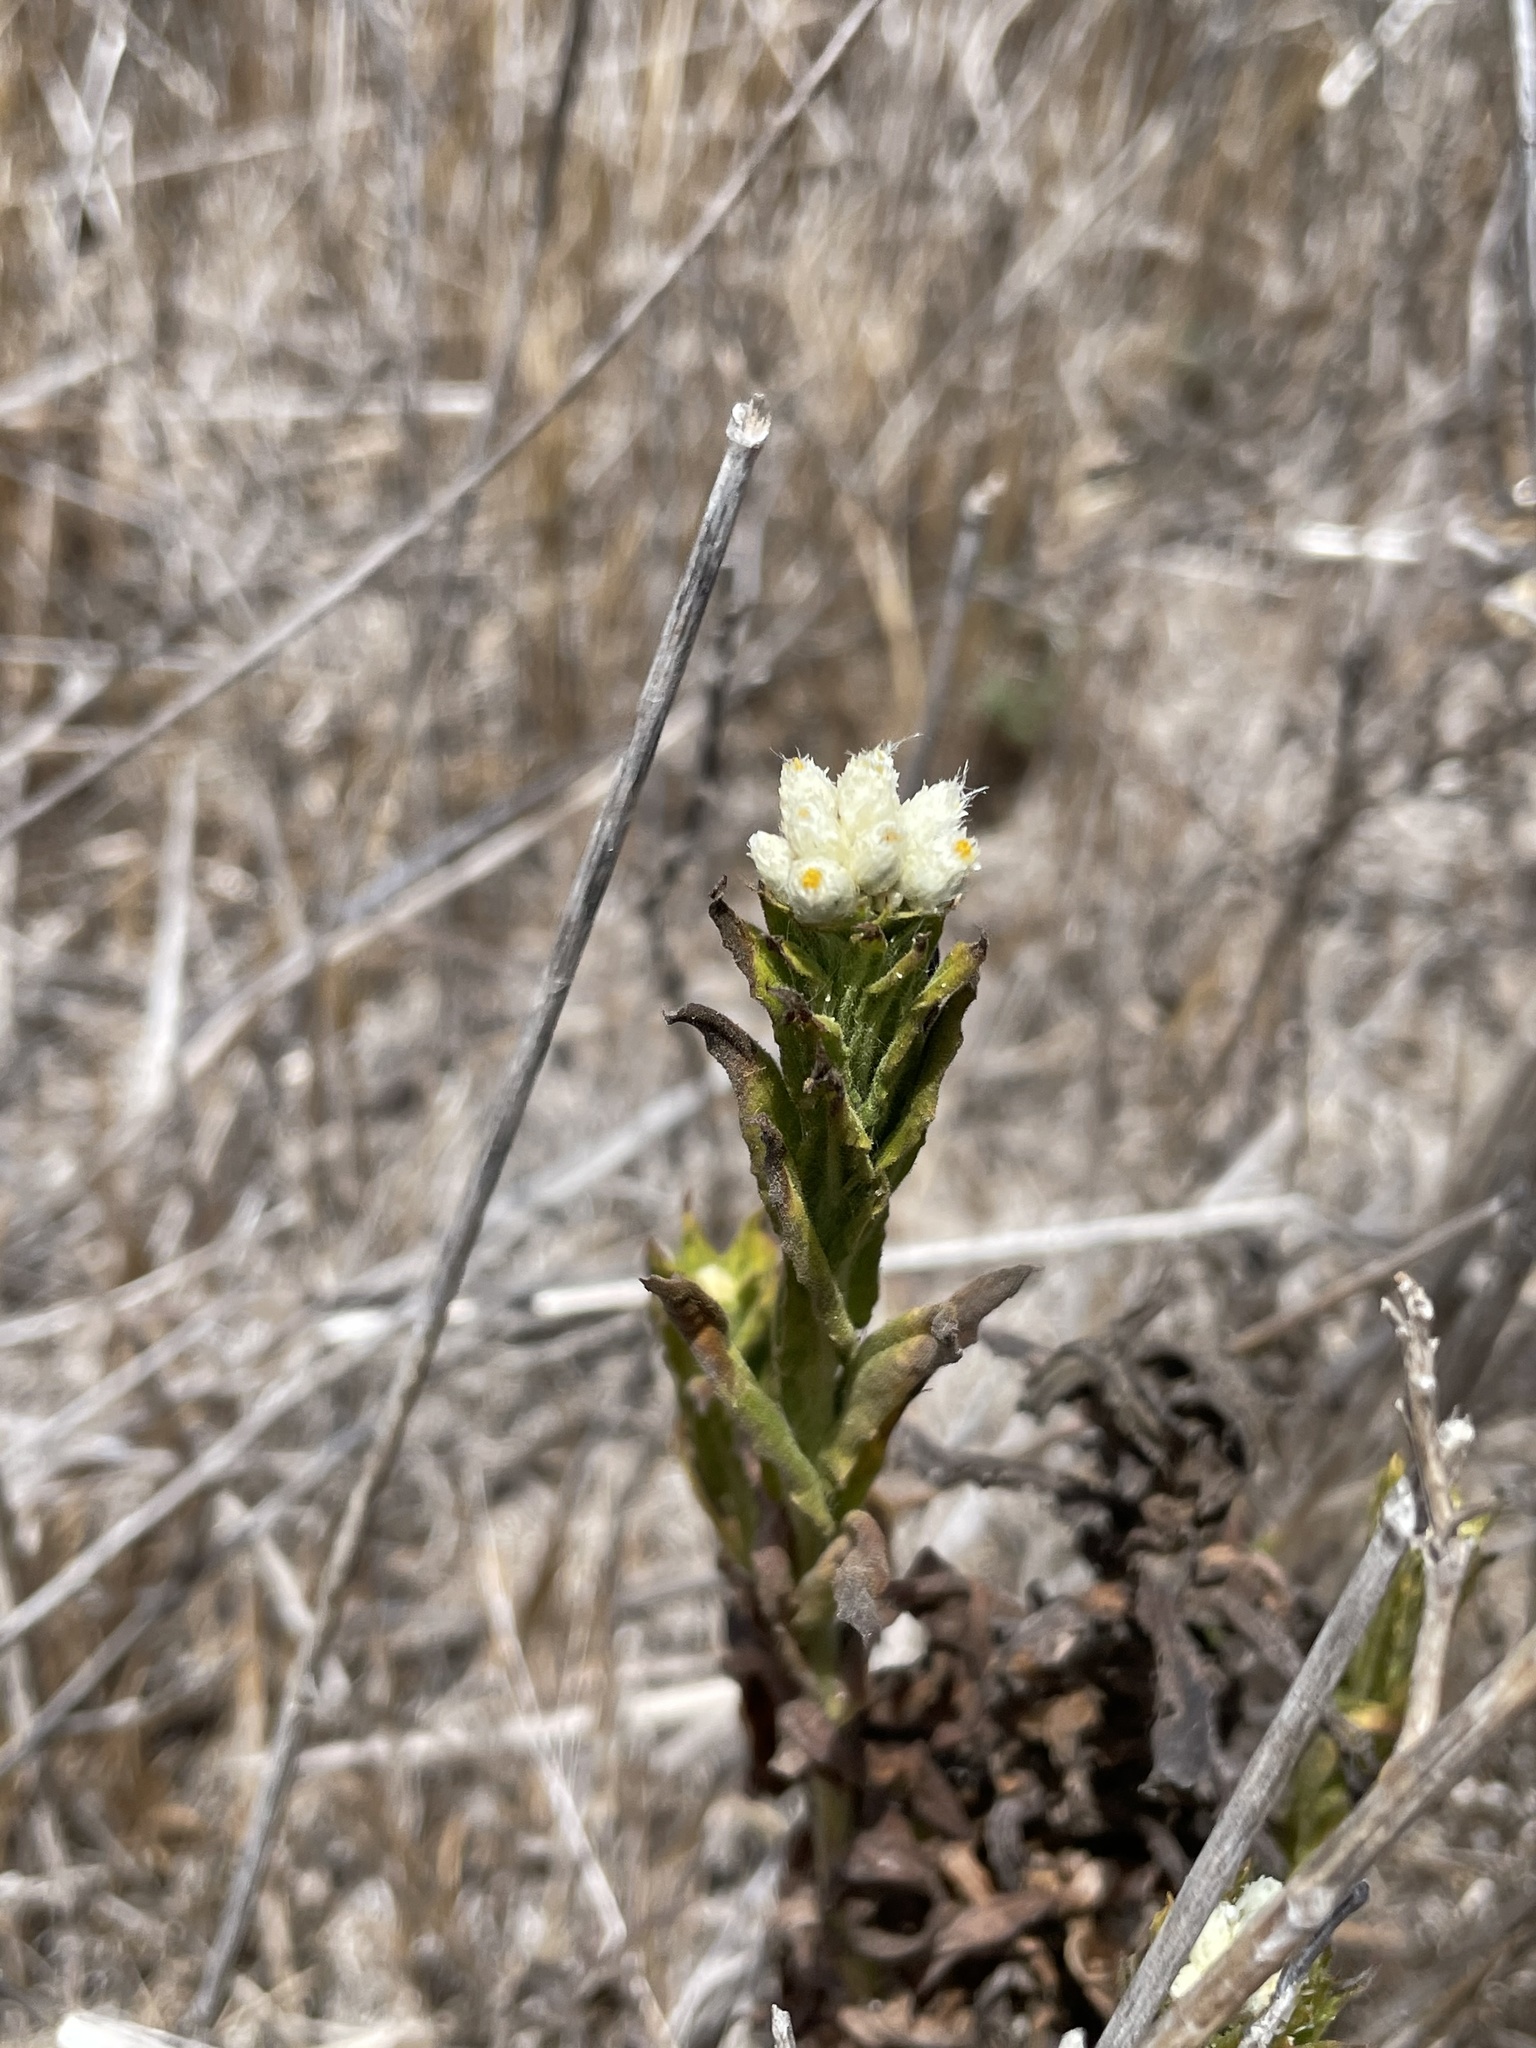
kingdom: Plantae
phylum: Tracheophyta
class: Magnoliopsida
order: Asterales
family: Asteraceae
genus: Pseudognaphalium
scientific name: Pseudognaphalium californicum
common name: California rabbit-tobacco
